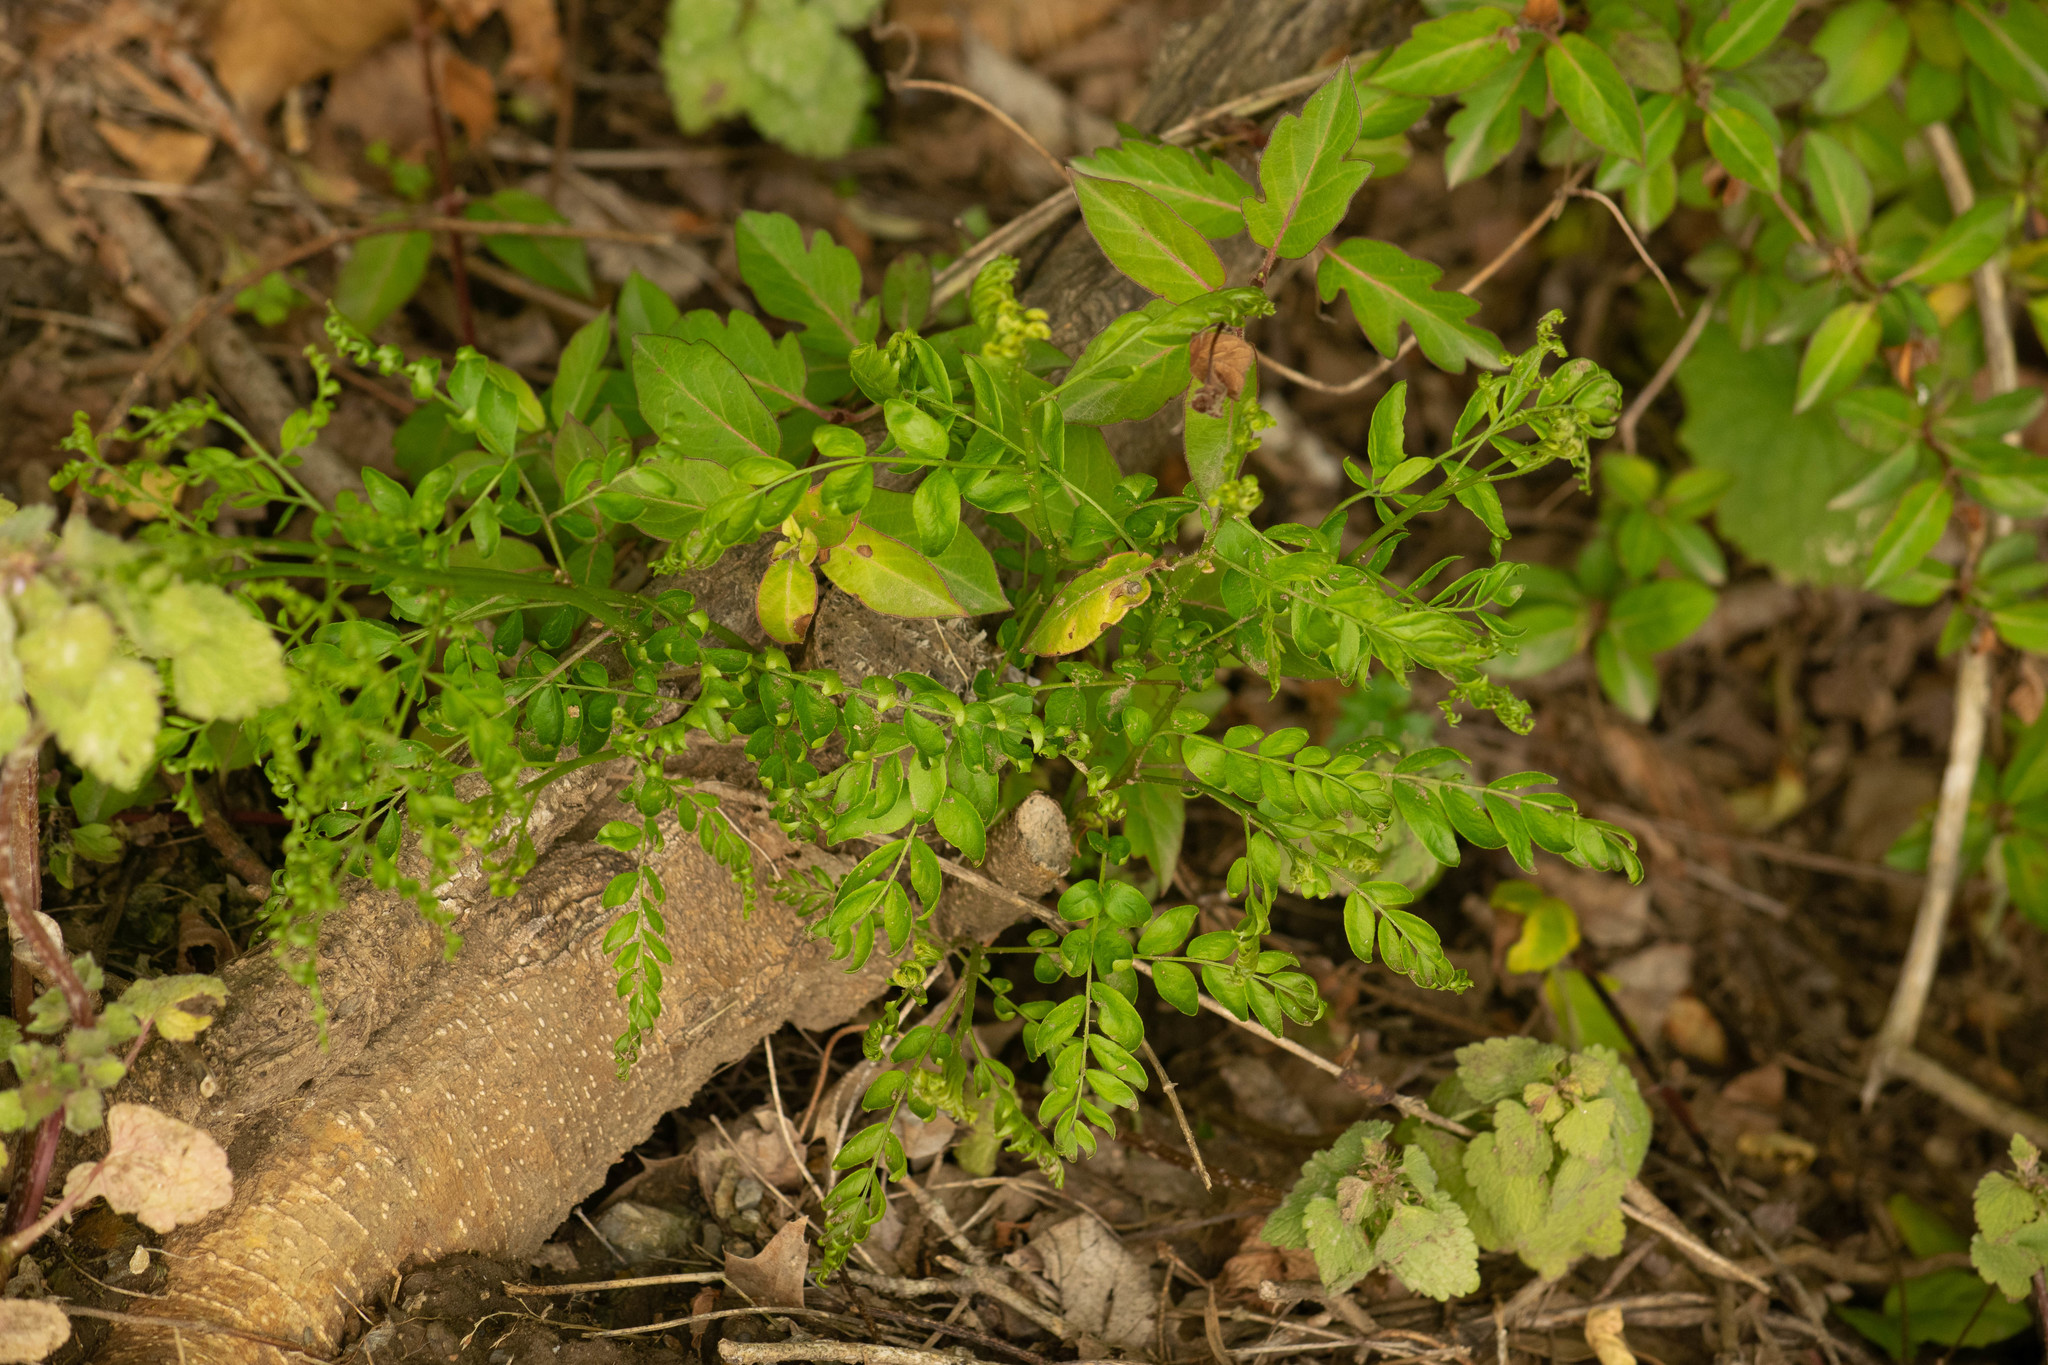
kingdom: Plantae
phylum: Tracheophyta
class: Magnoliopsida
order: Fabales
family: Fabaceae
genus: Gleditsia
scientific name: Gleditsia triacanthos
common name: Common honeylocust
